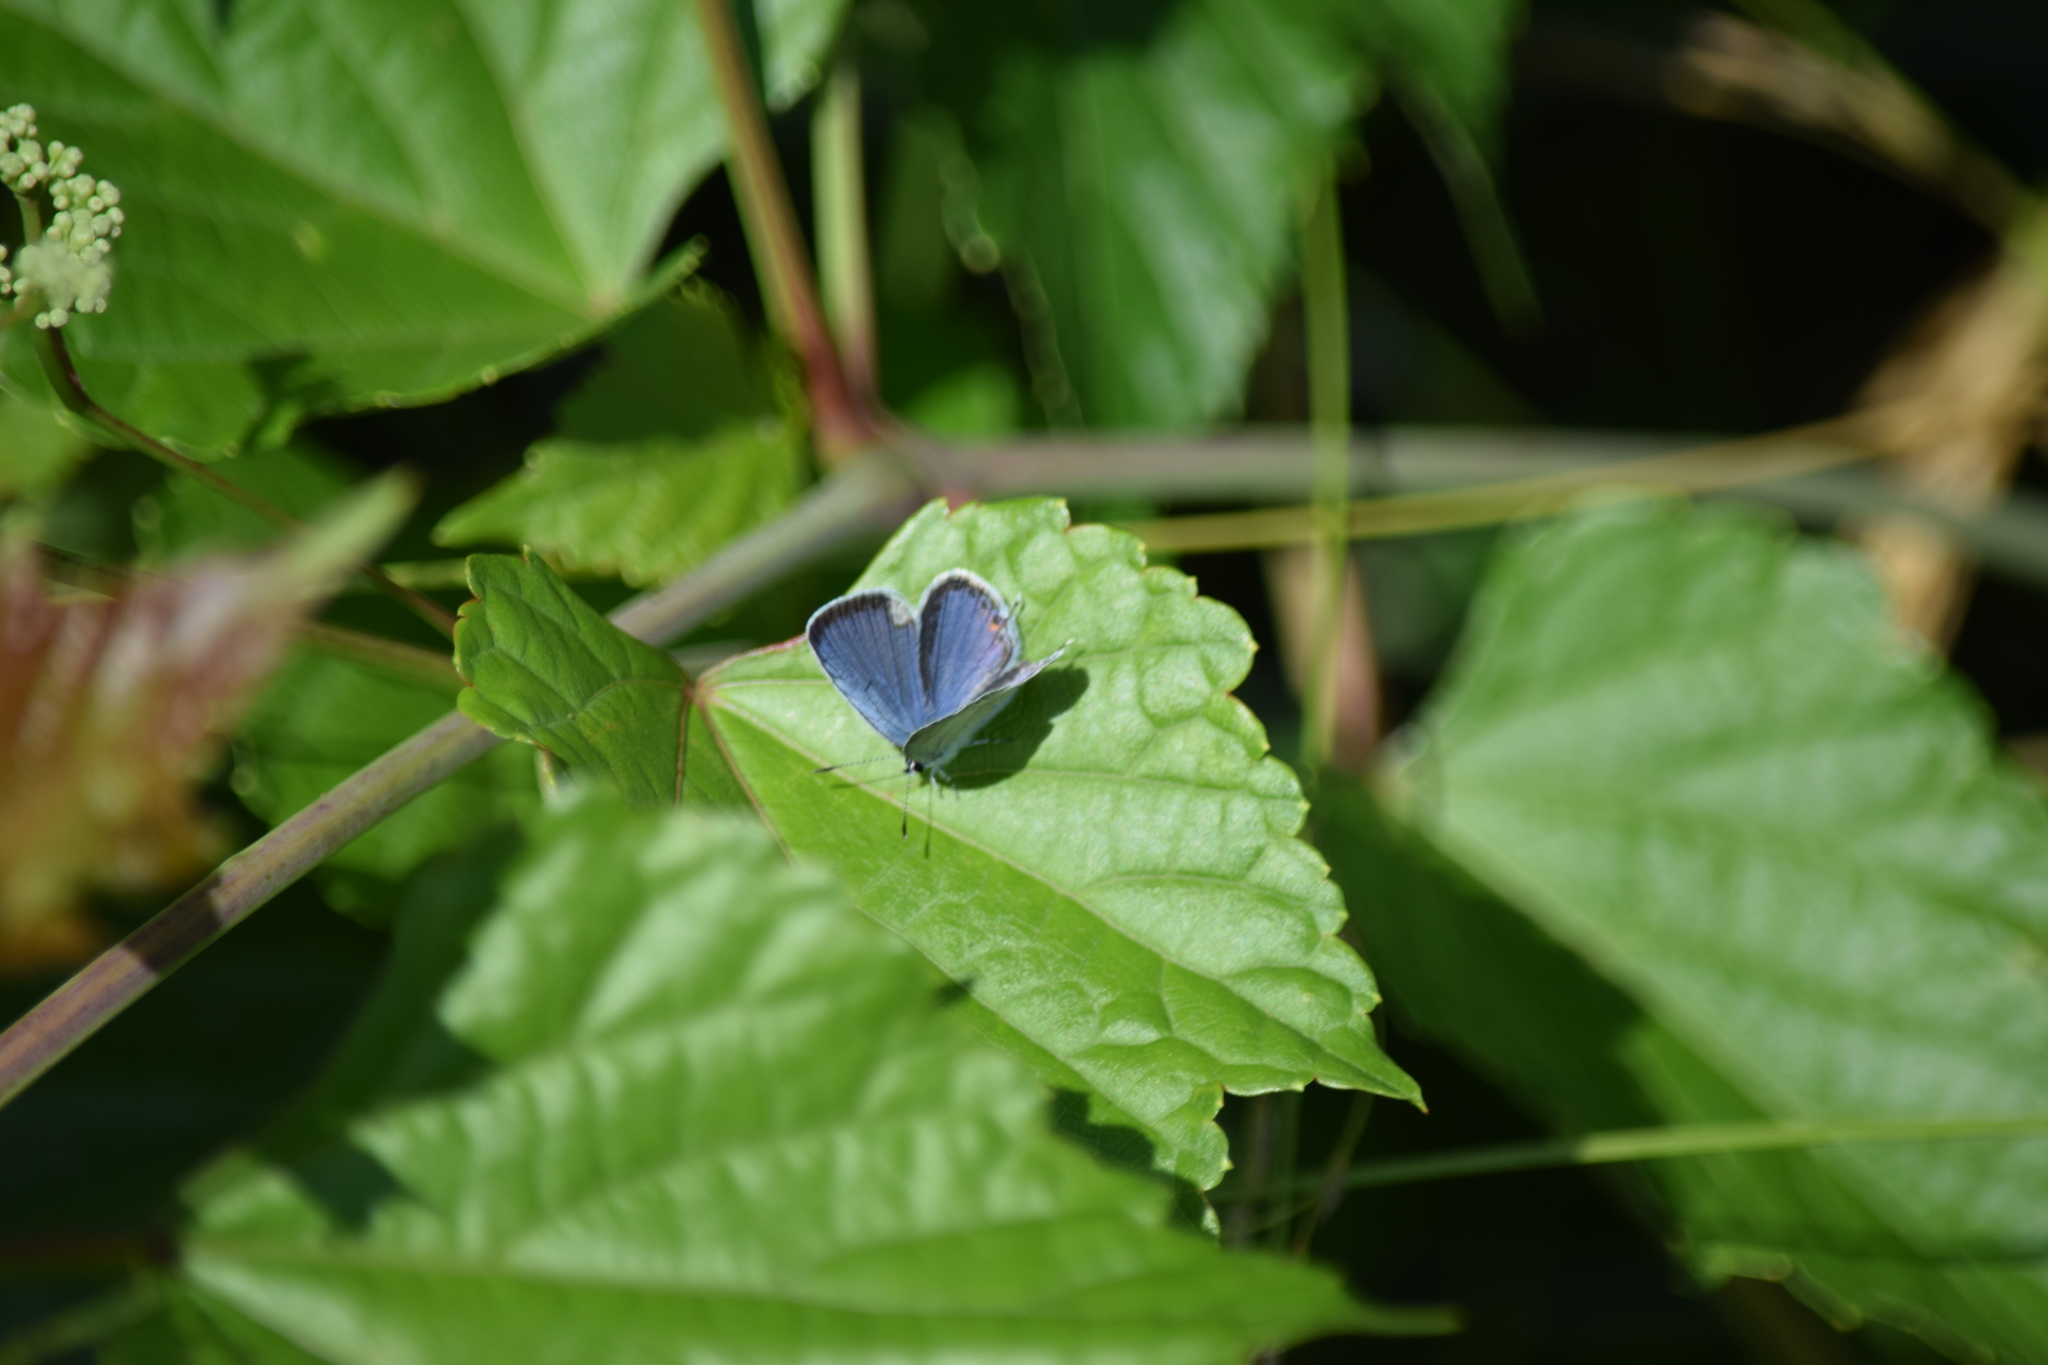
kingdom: Animalia
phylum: Arthropoda
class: Insecta
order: Lepidoptera
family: Lycaenidae
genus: Elkalyce
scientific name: Elkalyce comyntas
